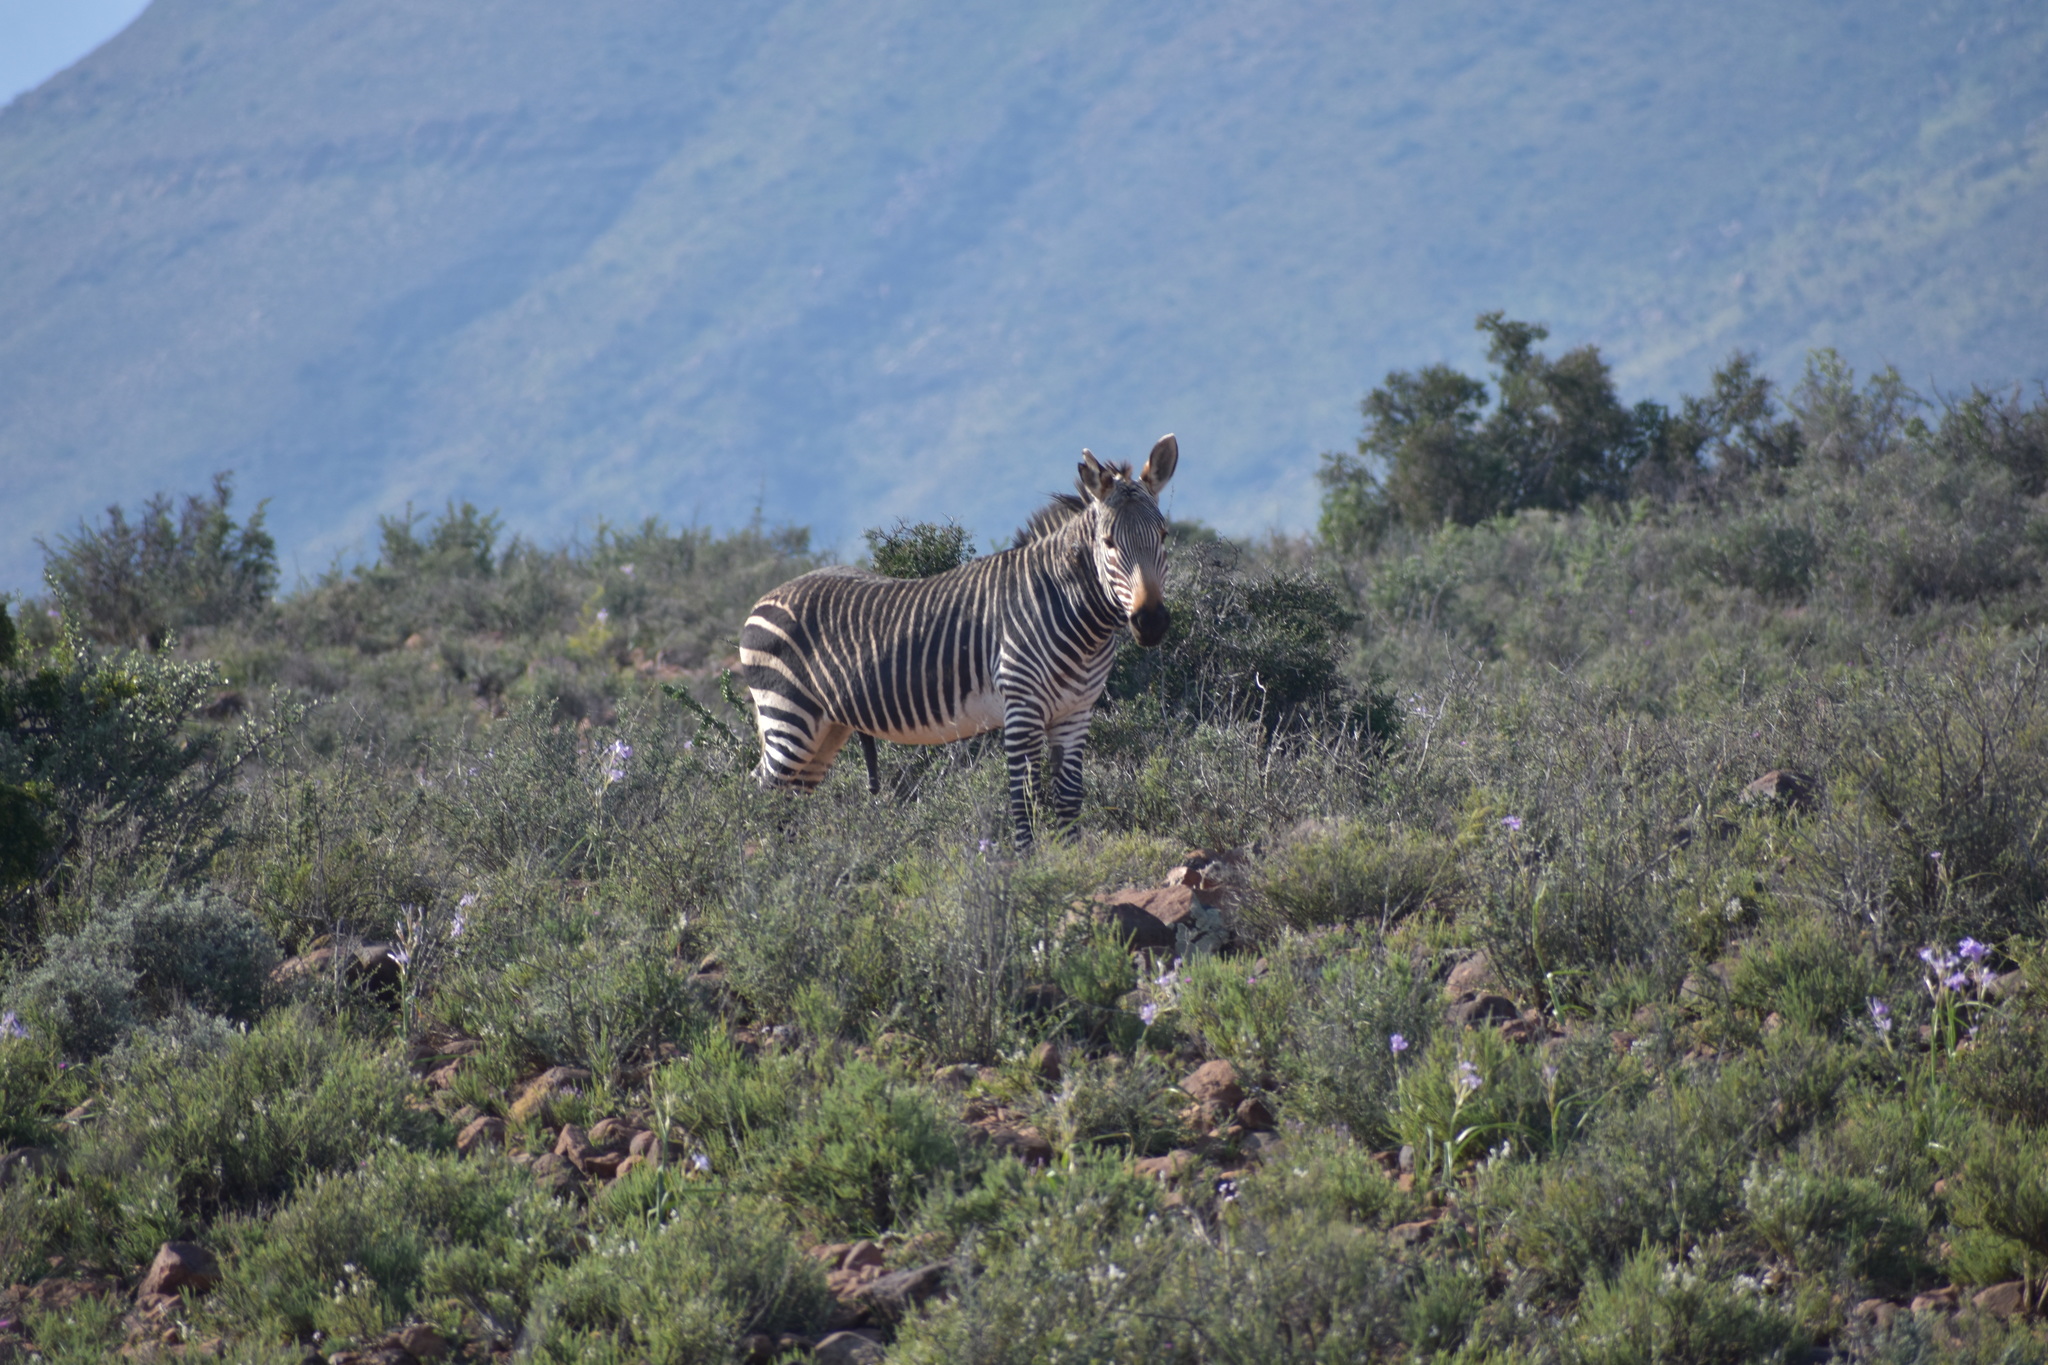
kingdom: Animalia
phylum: Chordata
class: Mammalia
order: Perissodactyla
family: Equidae
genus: Equus
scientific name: Equus zebra
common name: Mountain zebra
